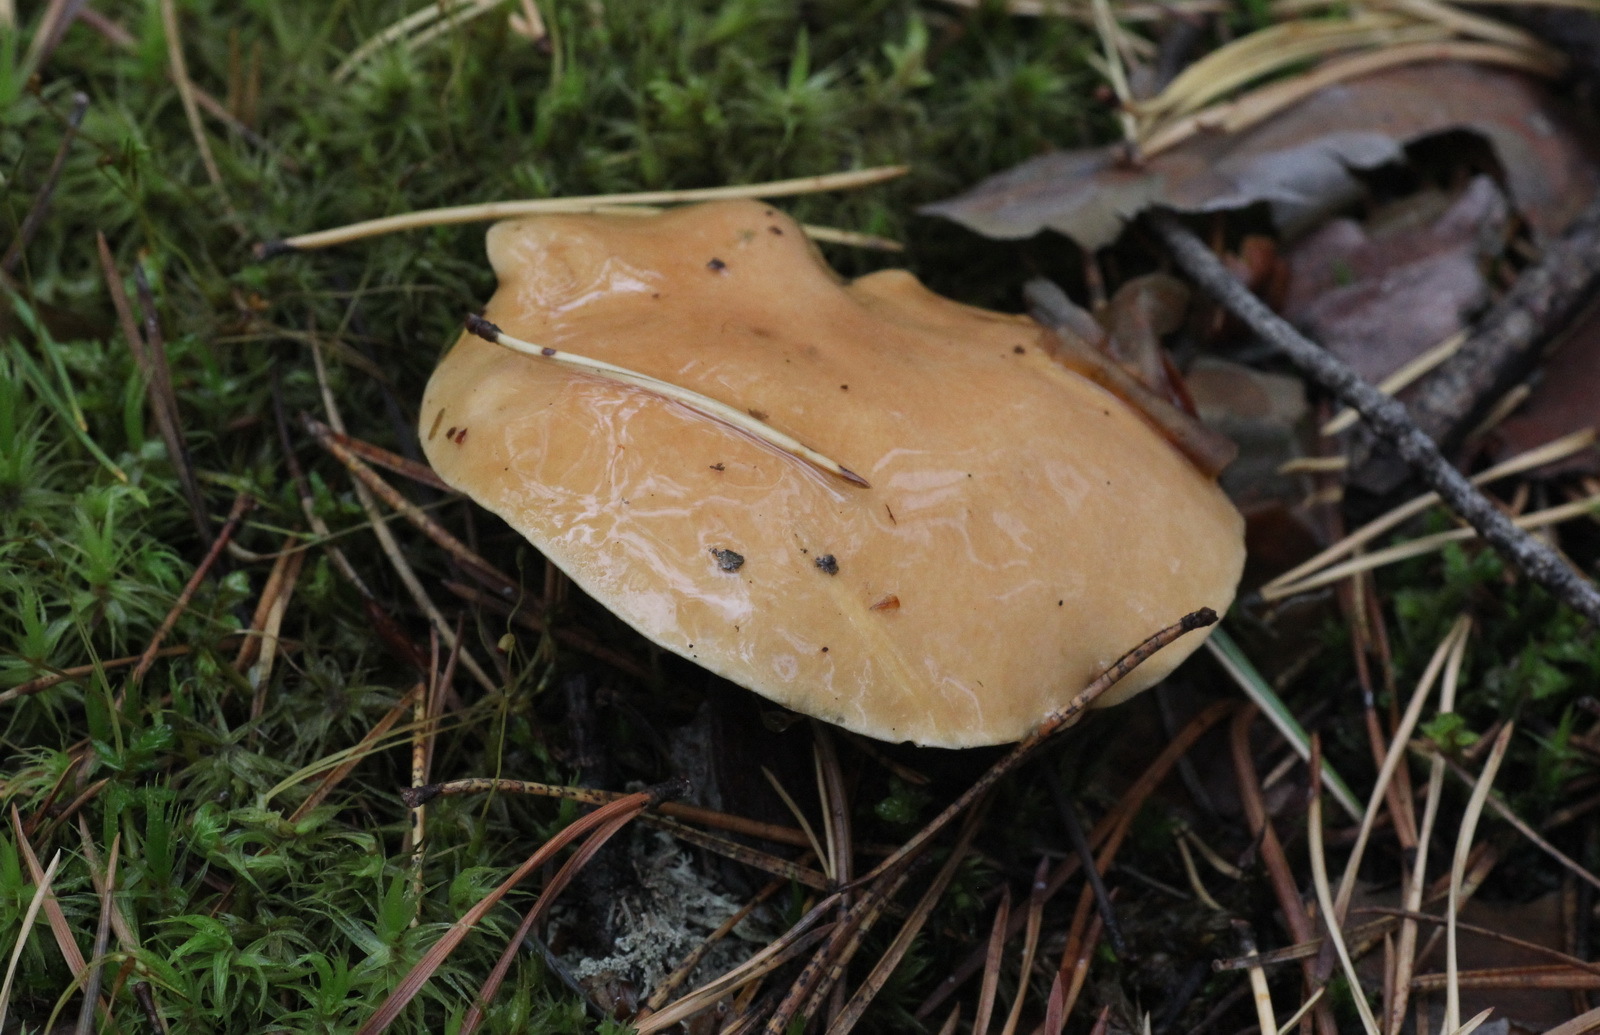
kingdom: Fungi
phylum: Basidiomycota
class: Agaricomycetes
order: Boletales
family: Suillaceae
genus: Suillus
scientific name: Suillus bovinus
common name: Bovine bolete
